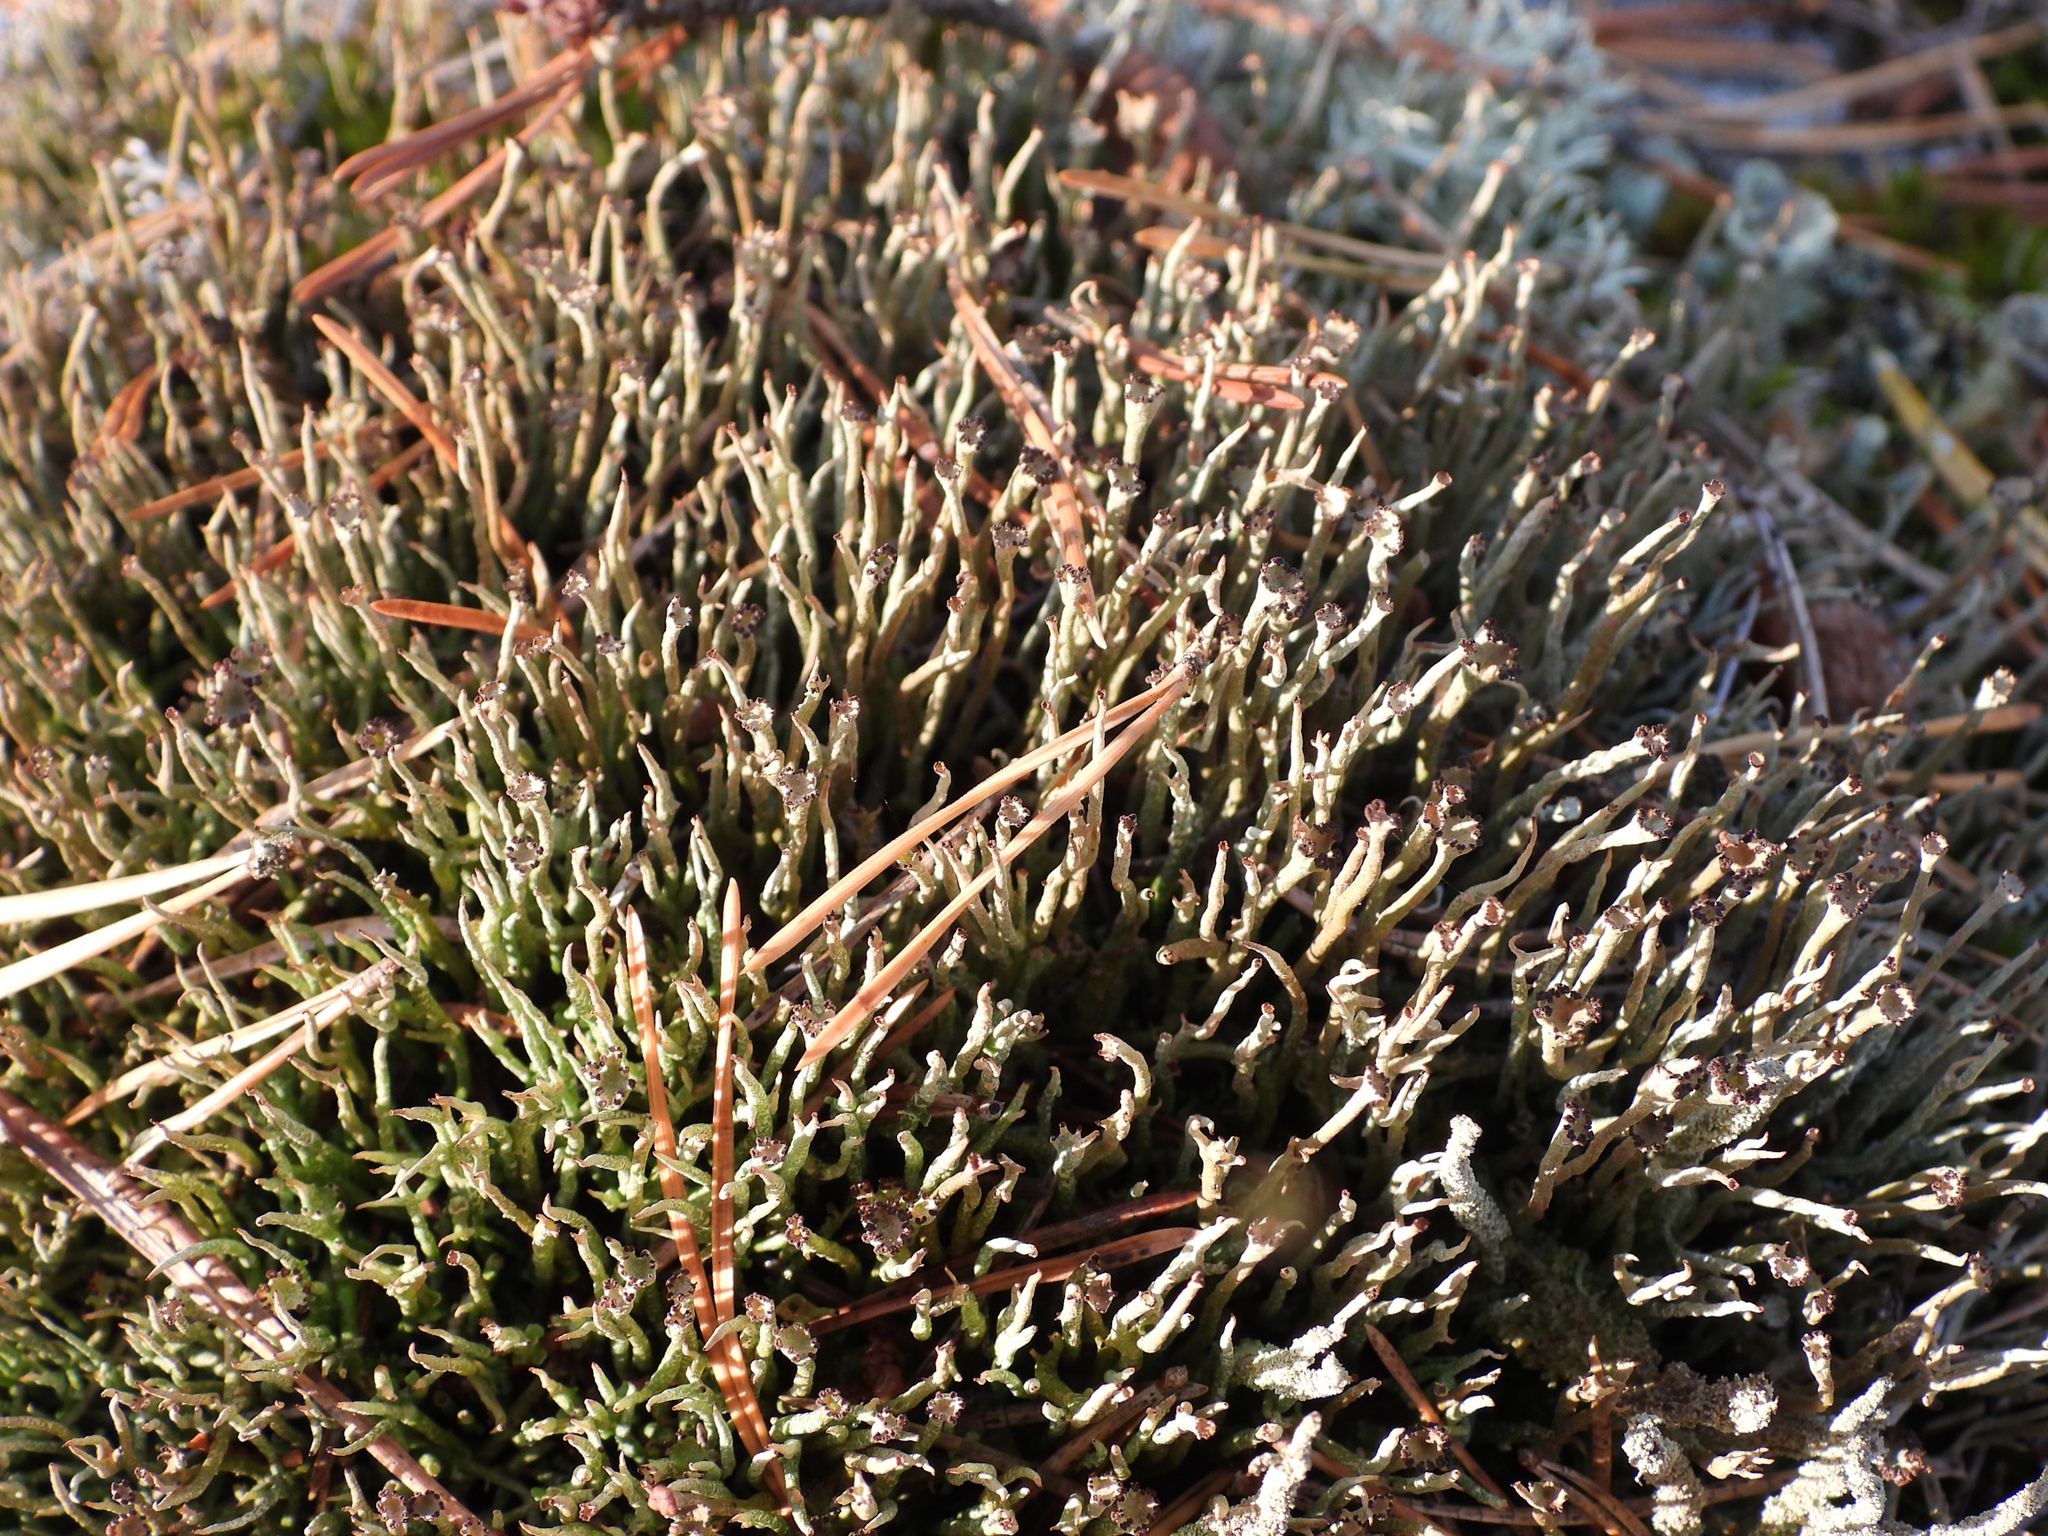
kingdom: Fungi
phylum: Ascomycota
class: Lecanoromycetes
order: Lecanorales
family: Cladoniaceae
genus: Cladonia
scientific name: Cladonia gracilis
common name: Smooth clad lichen
